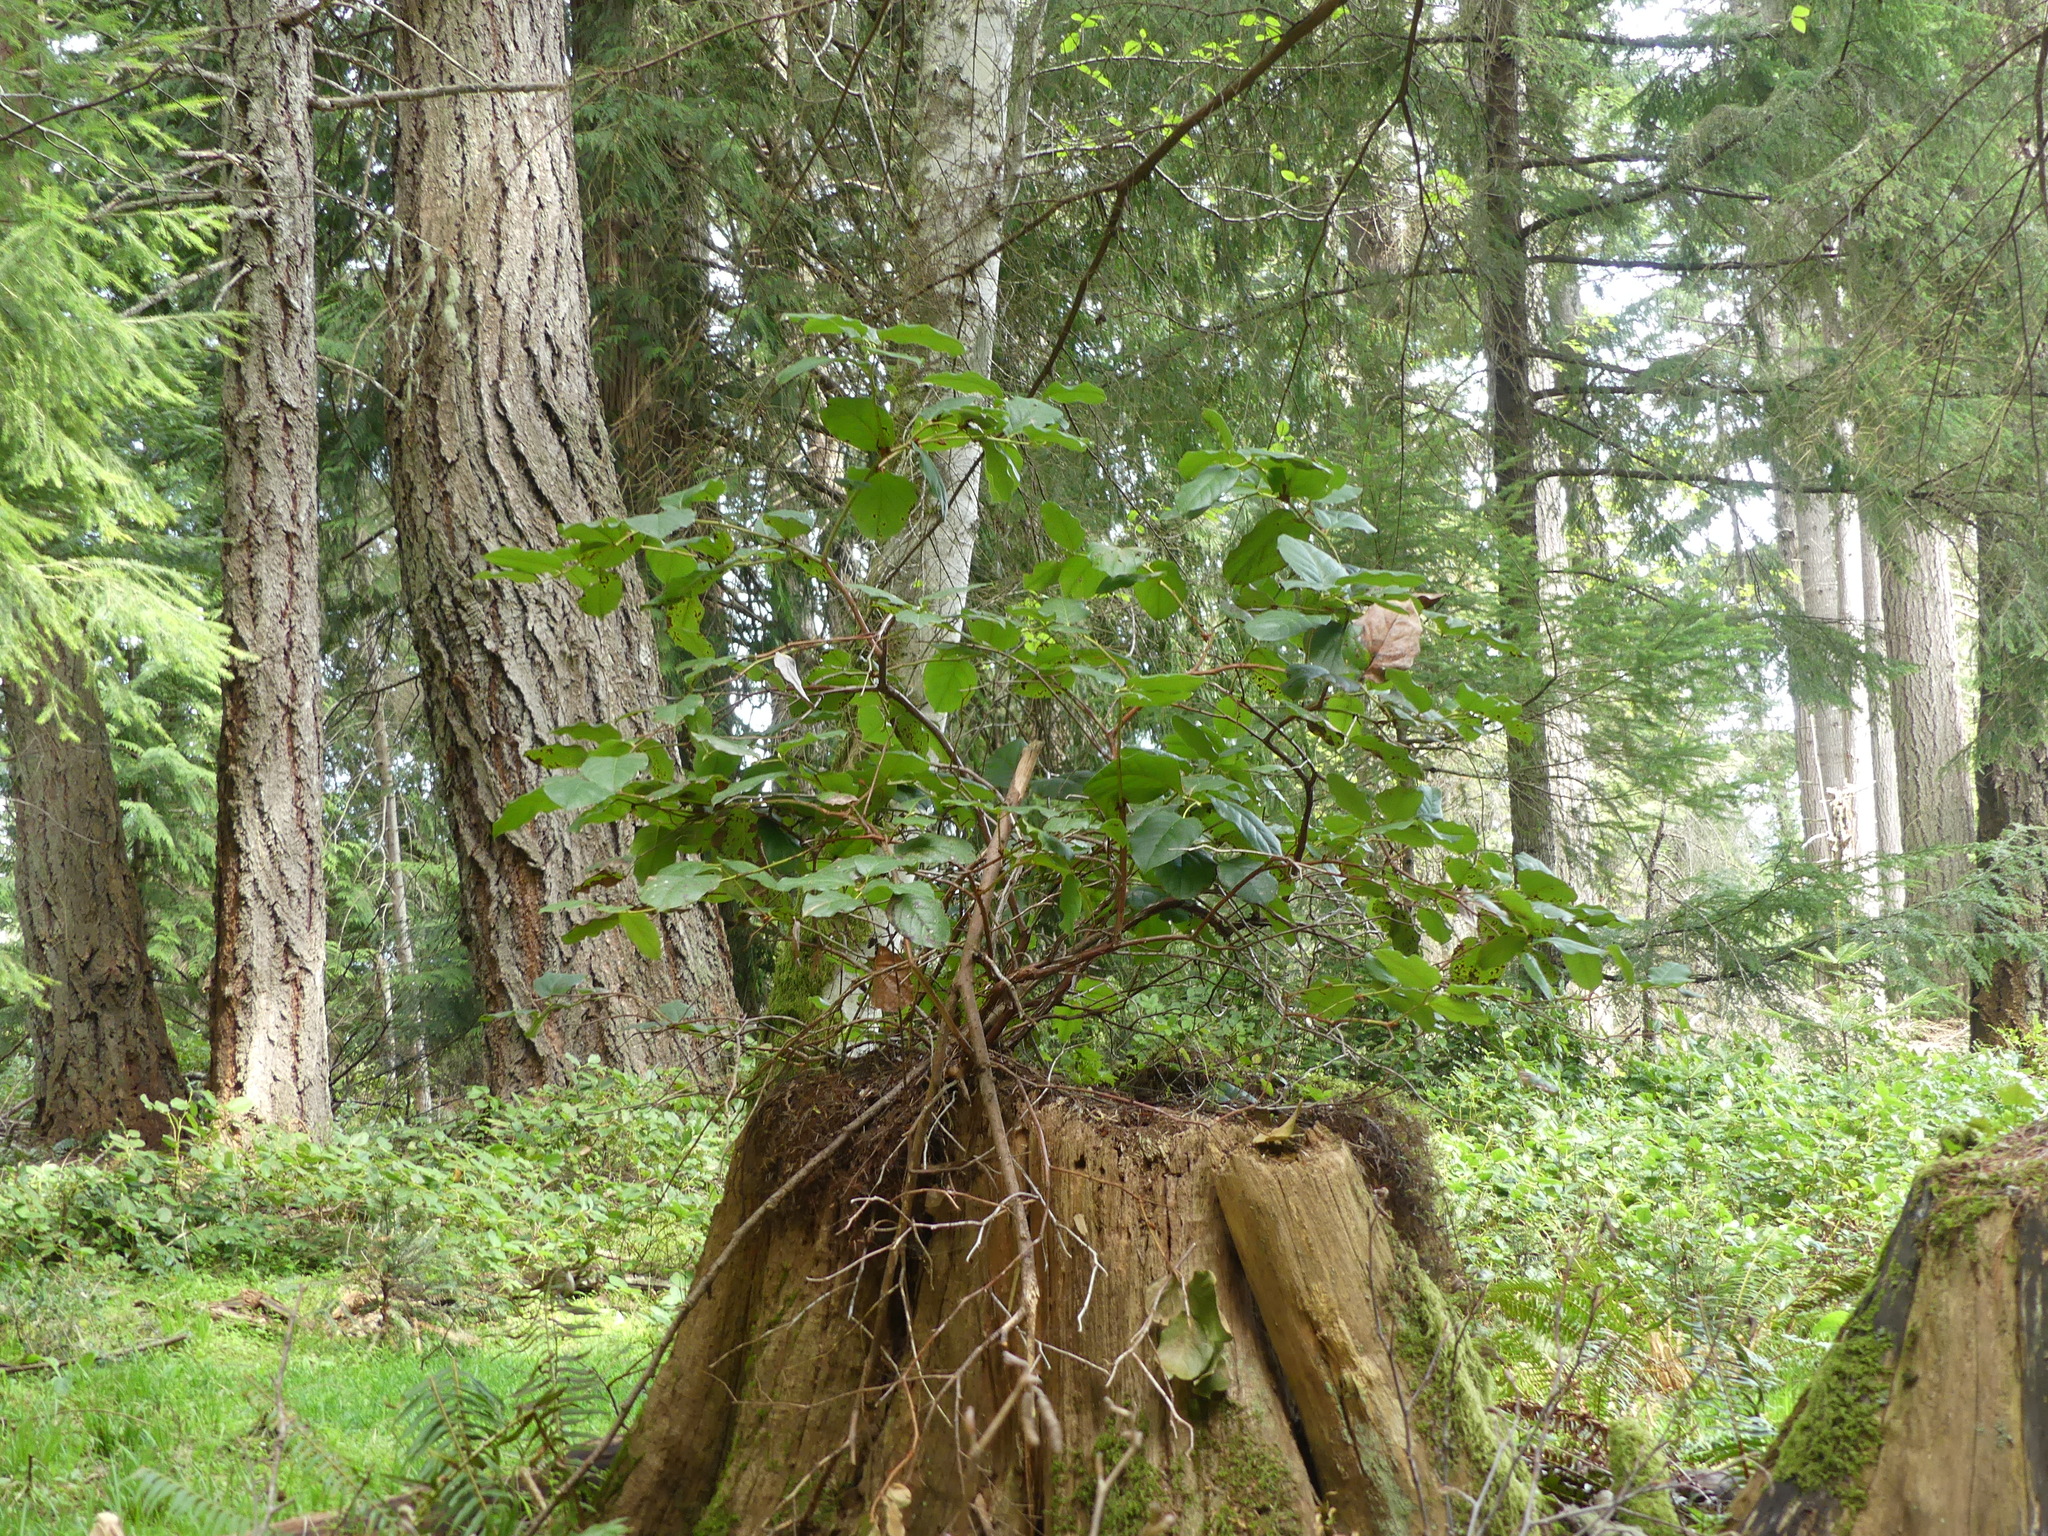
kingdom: Plantae
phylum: Tracheophyta
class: Magnoliopsida
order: Ericales
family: Ericaceae
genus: Gaultheria
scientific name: Gaultheria shallon
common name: Shallon
